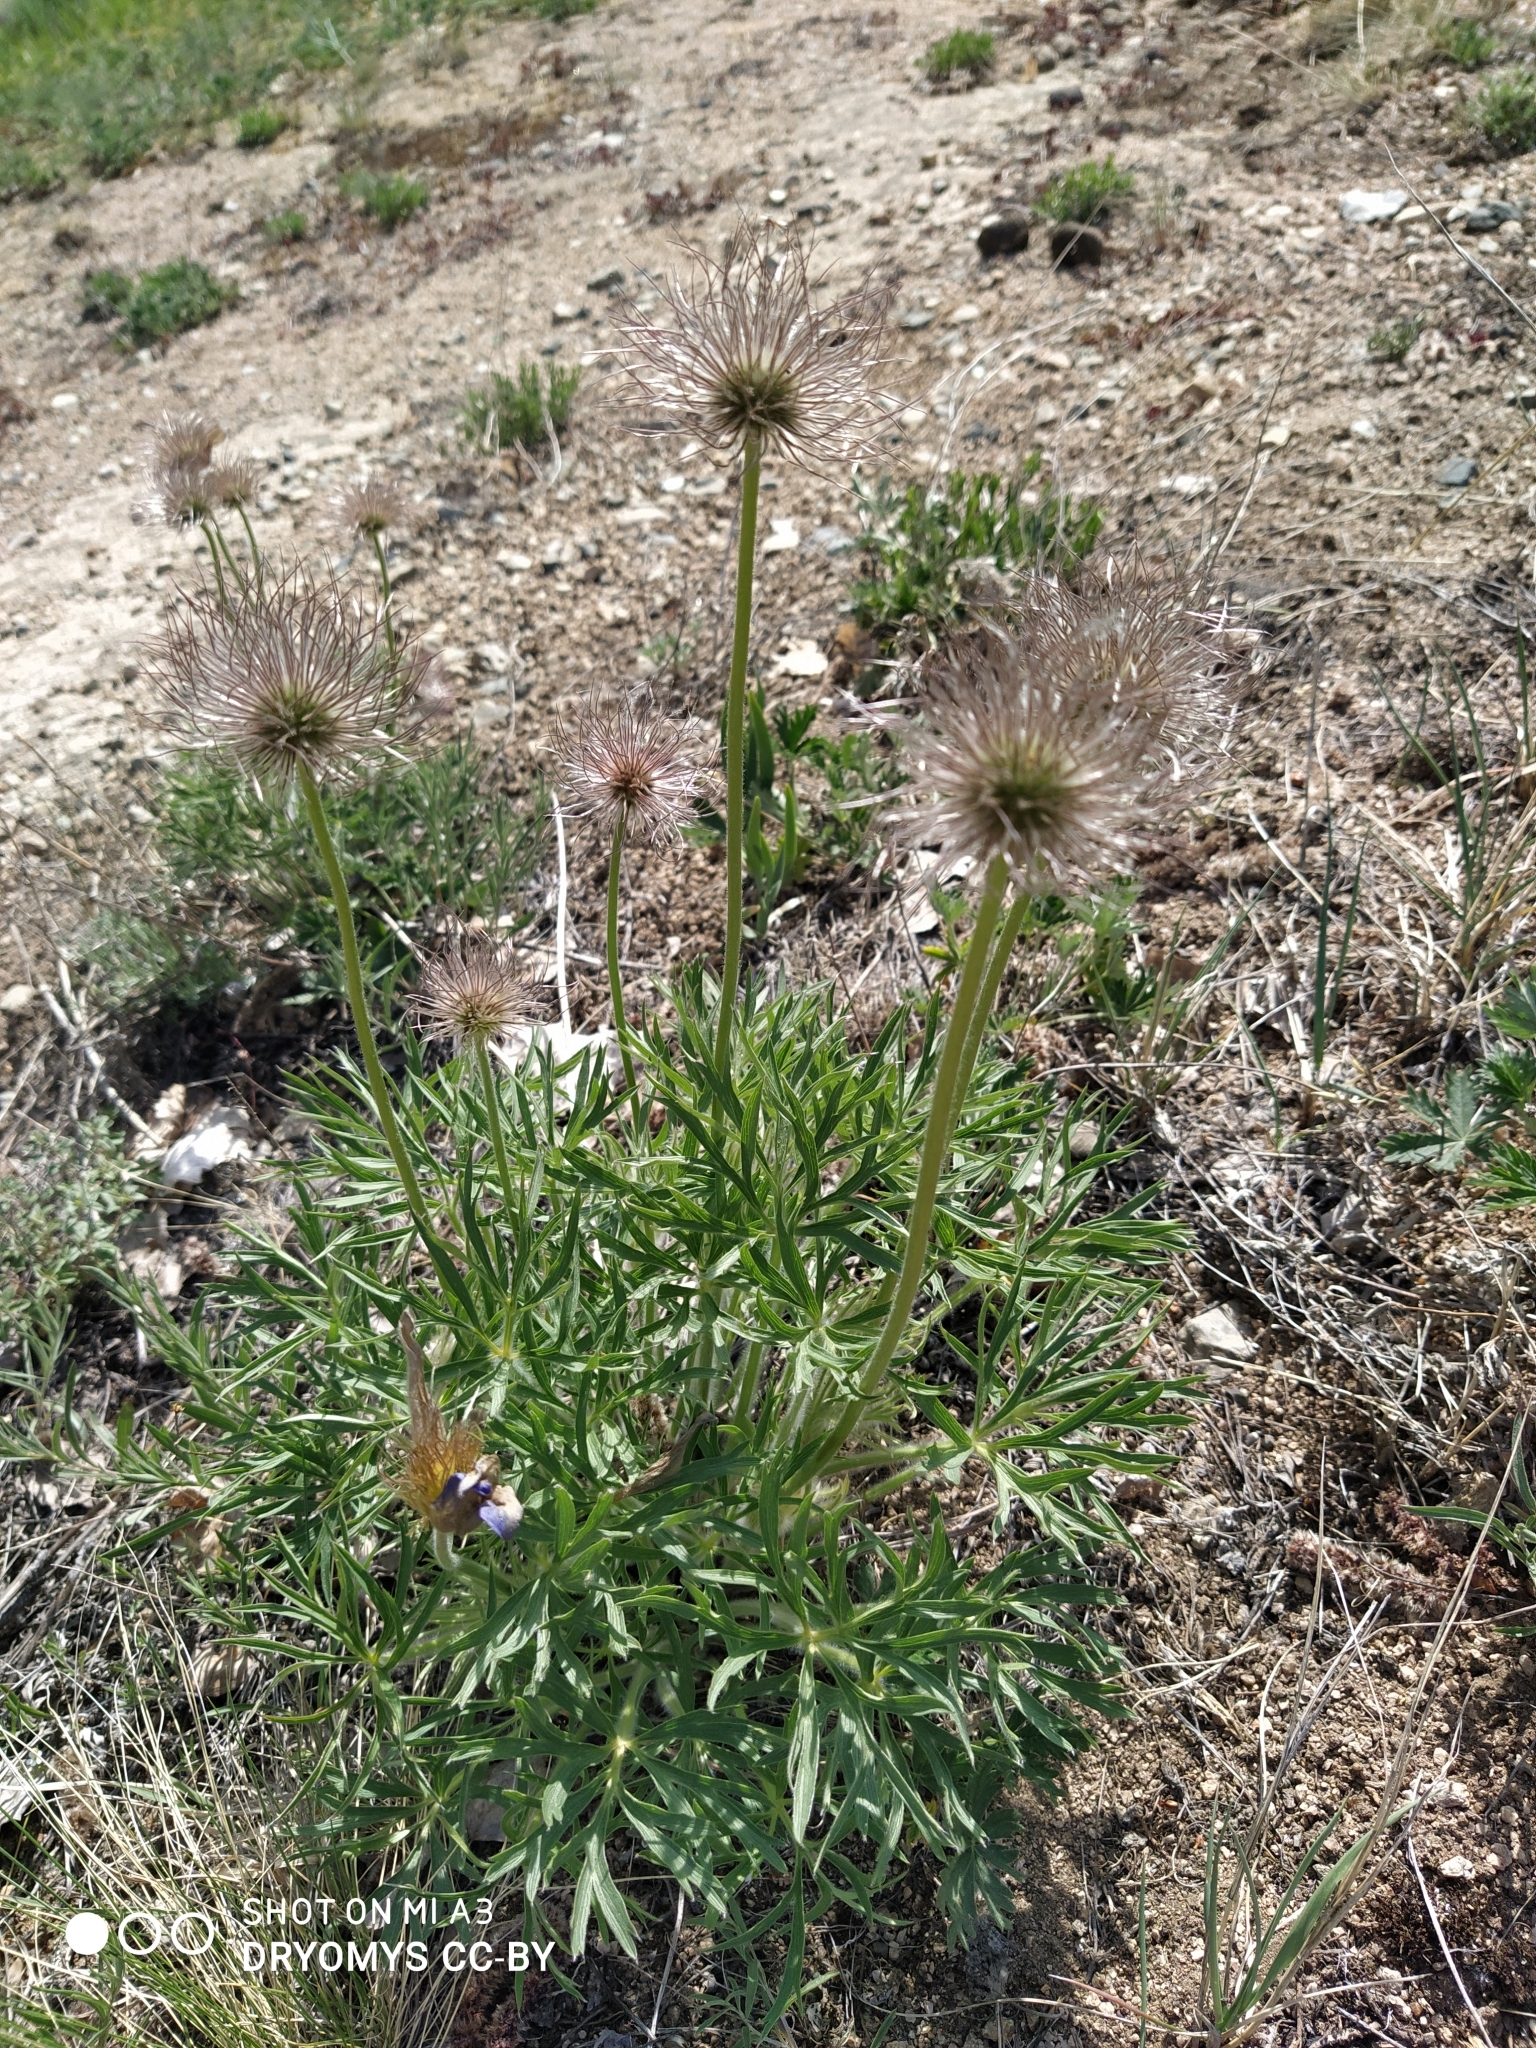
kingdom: Plantae
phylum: Tracheophyta
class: Magnoliopsida
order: Ranunculales
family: Ranunculaceae
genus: Pulsatilla
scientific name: Pulsatilla patens
